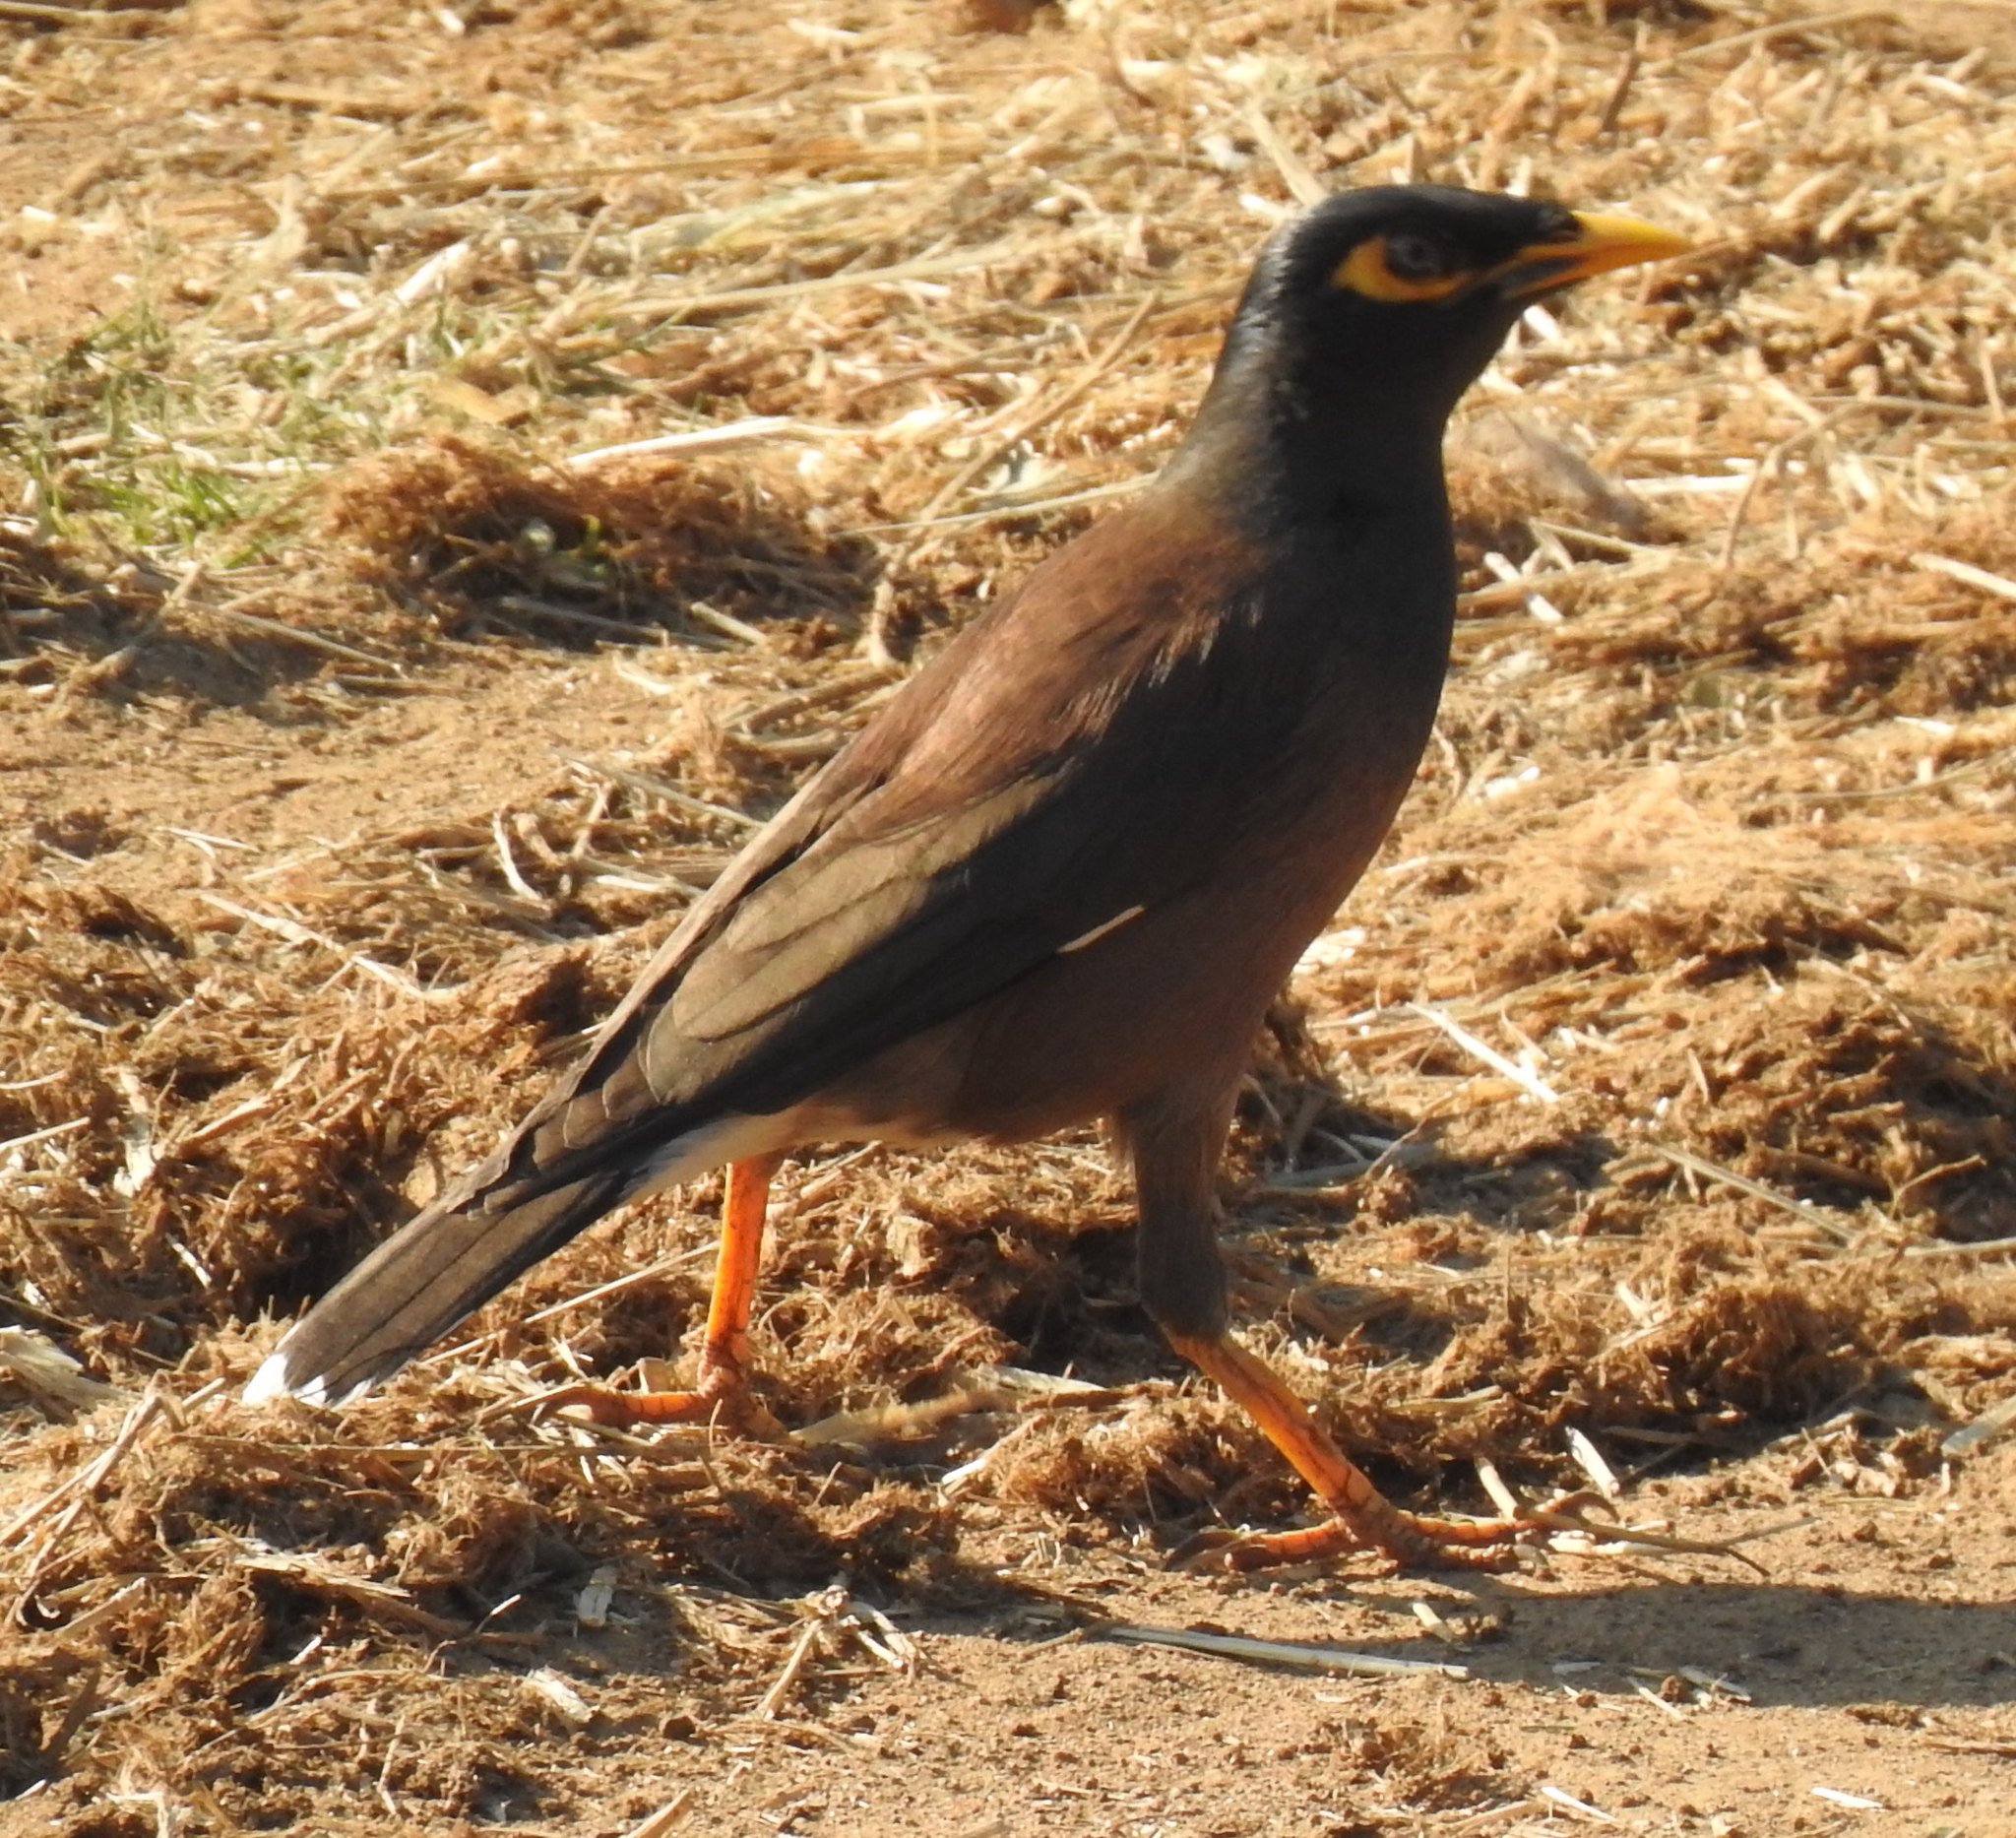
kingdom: Animalia
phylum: Chordata
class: Aves
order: Passeriformes
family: Sturnidae
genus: Acridotheres
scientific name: Acridotheres tristis
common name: Common myna
